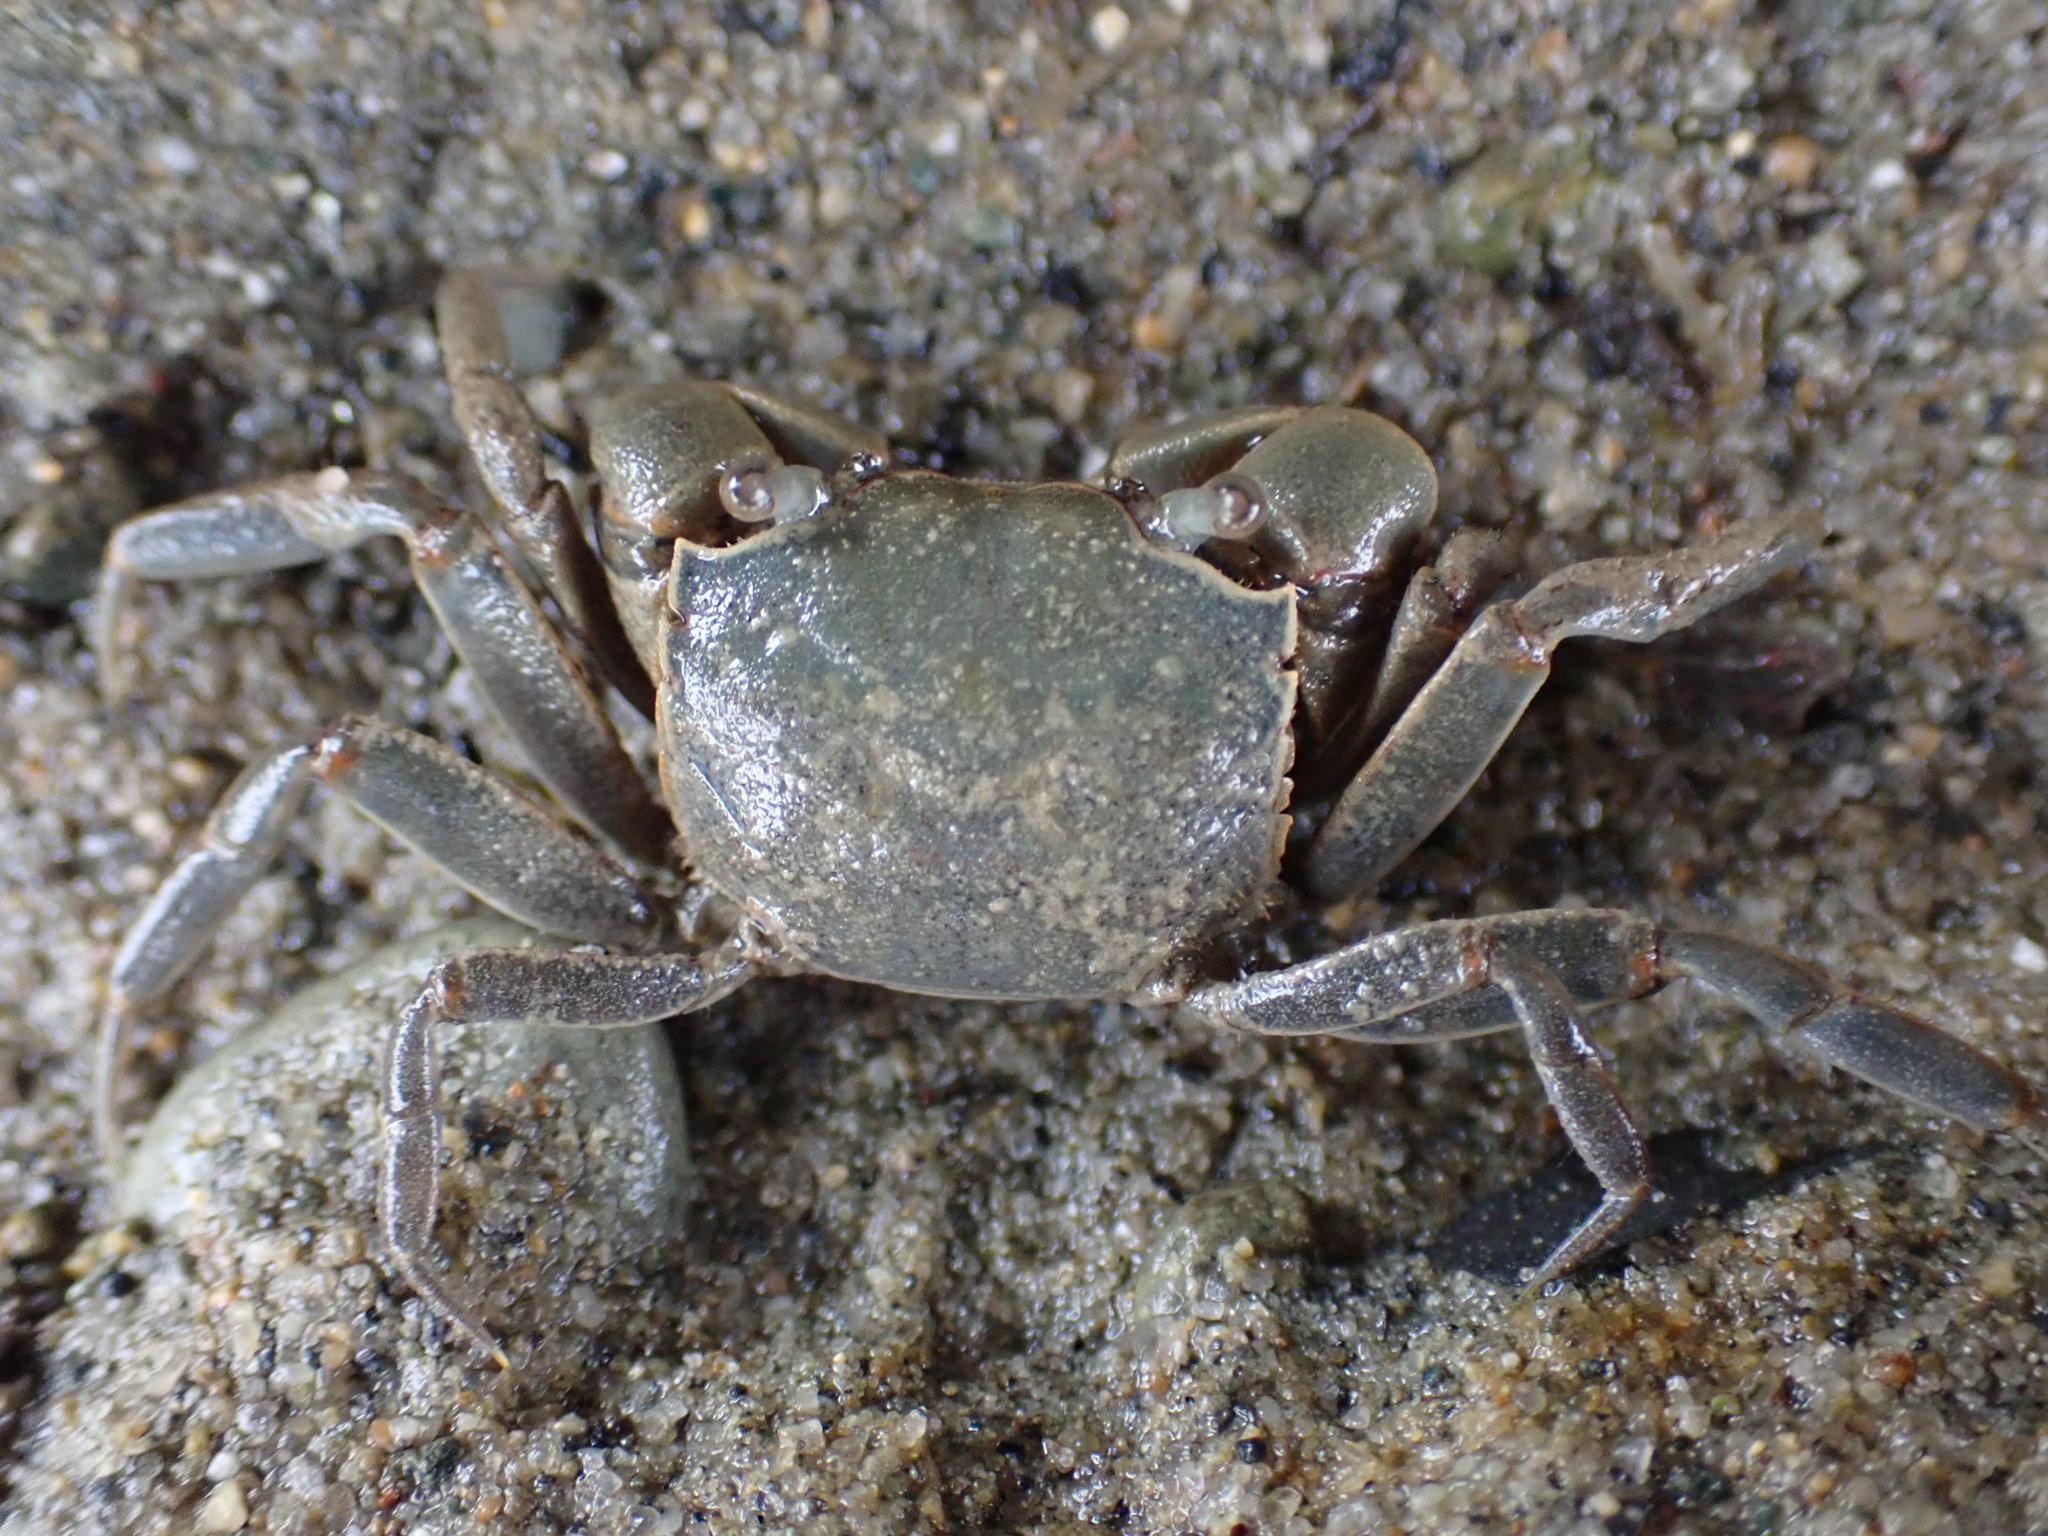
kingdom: Animalia
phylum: Arthropoda
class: Malacostraca
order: Decapoda
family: Varunidae
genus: Austrohelice
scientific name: Austrohelice crassa
